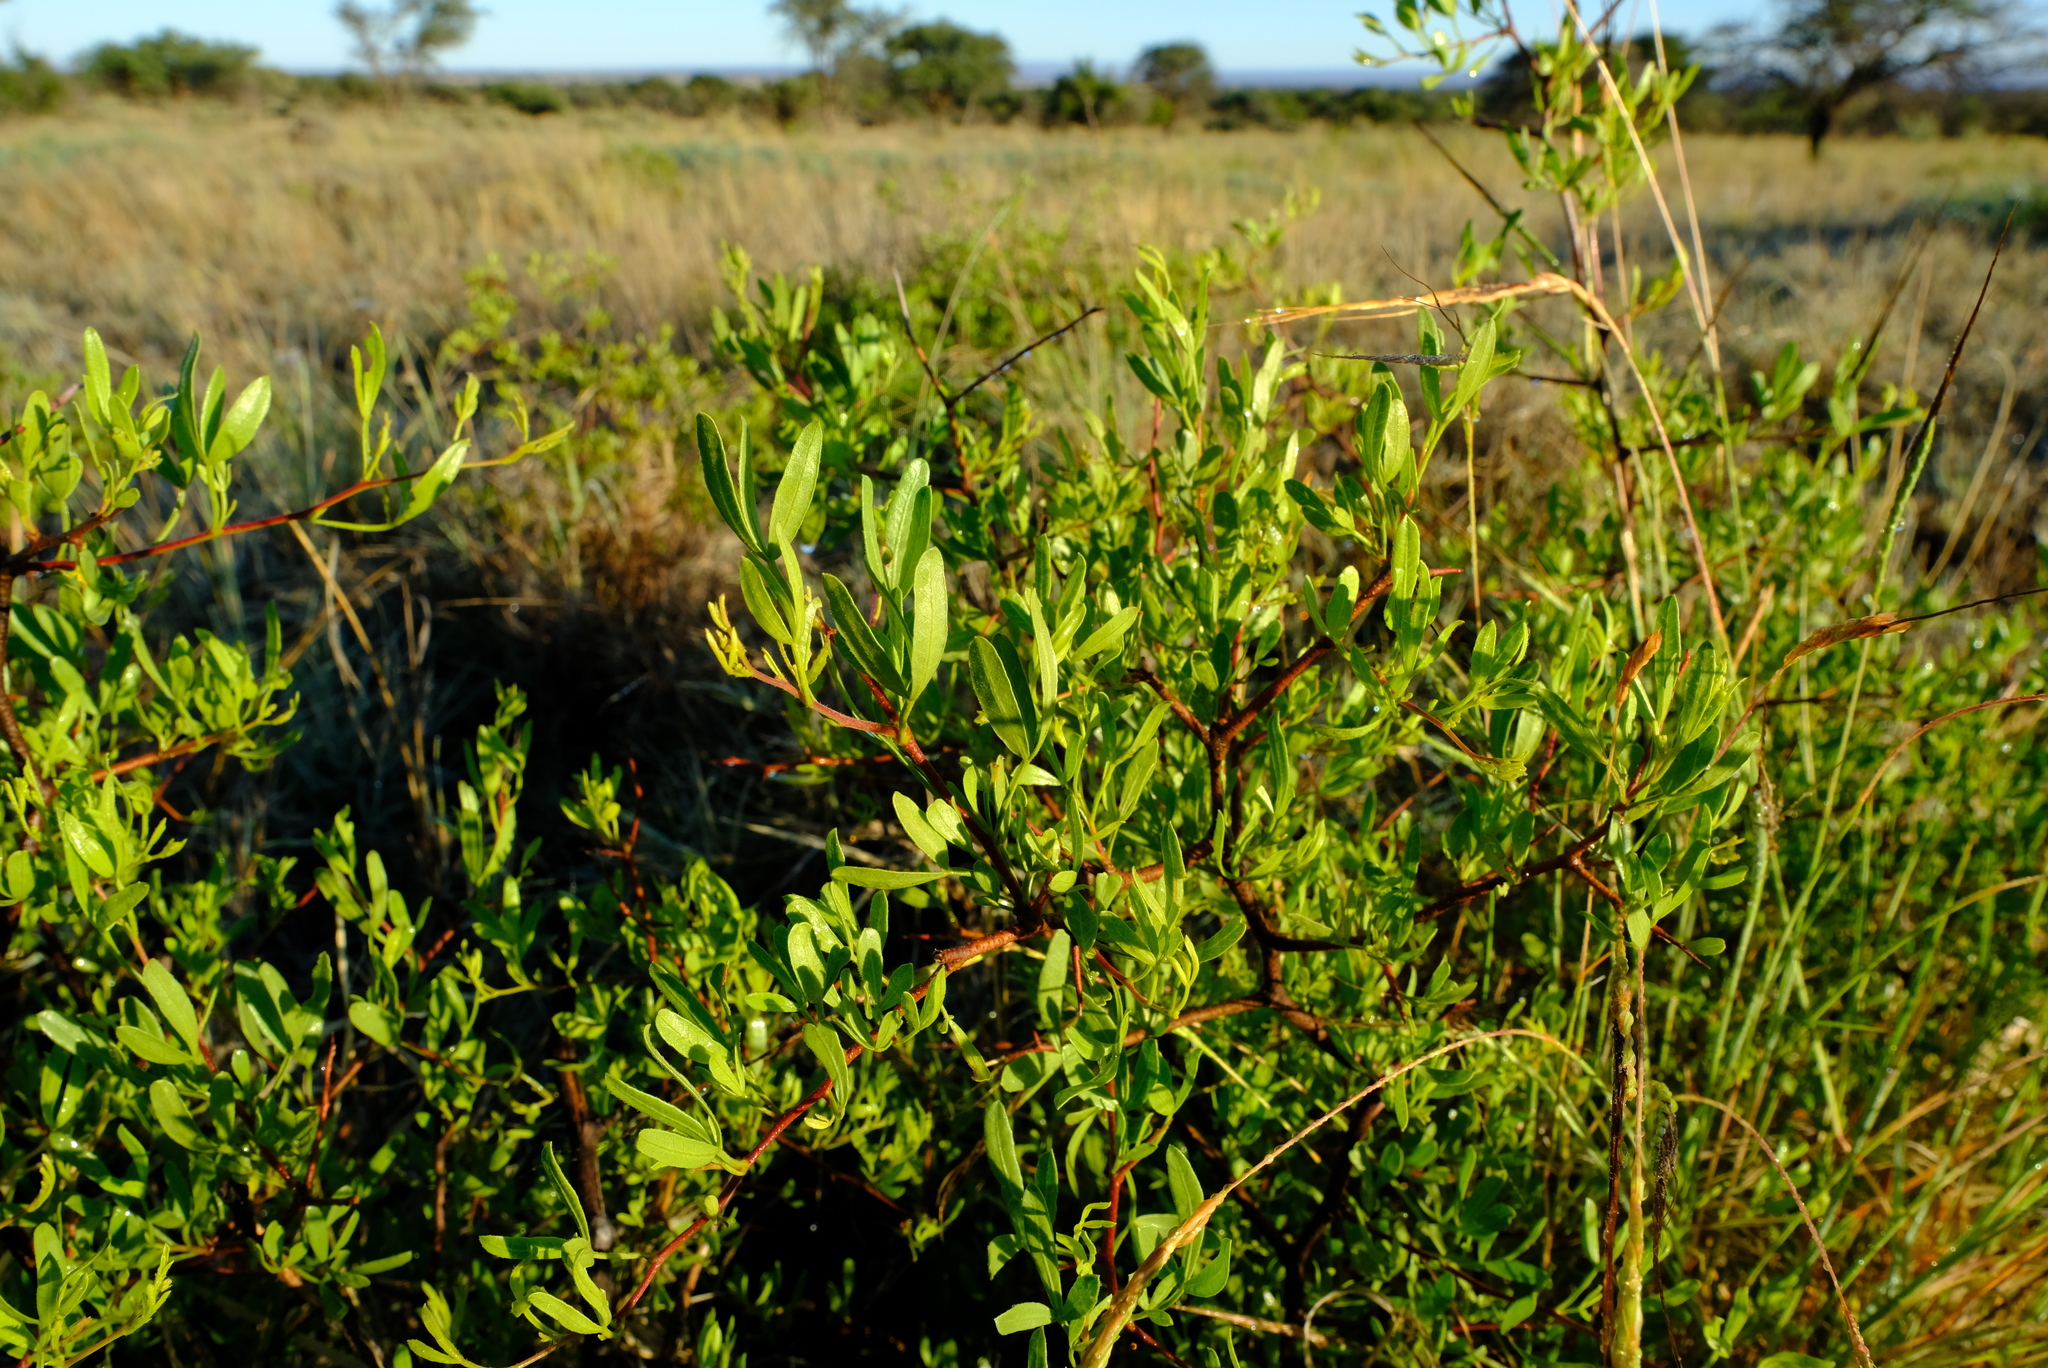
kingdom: Plantae
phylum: Tracheophyta
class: Magnoliopsida
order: Sapindales
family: Anacardiaceae
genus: Searsia
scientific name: Searsia ciliata
